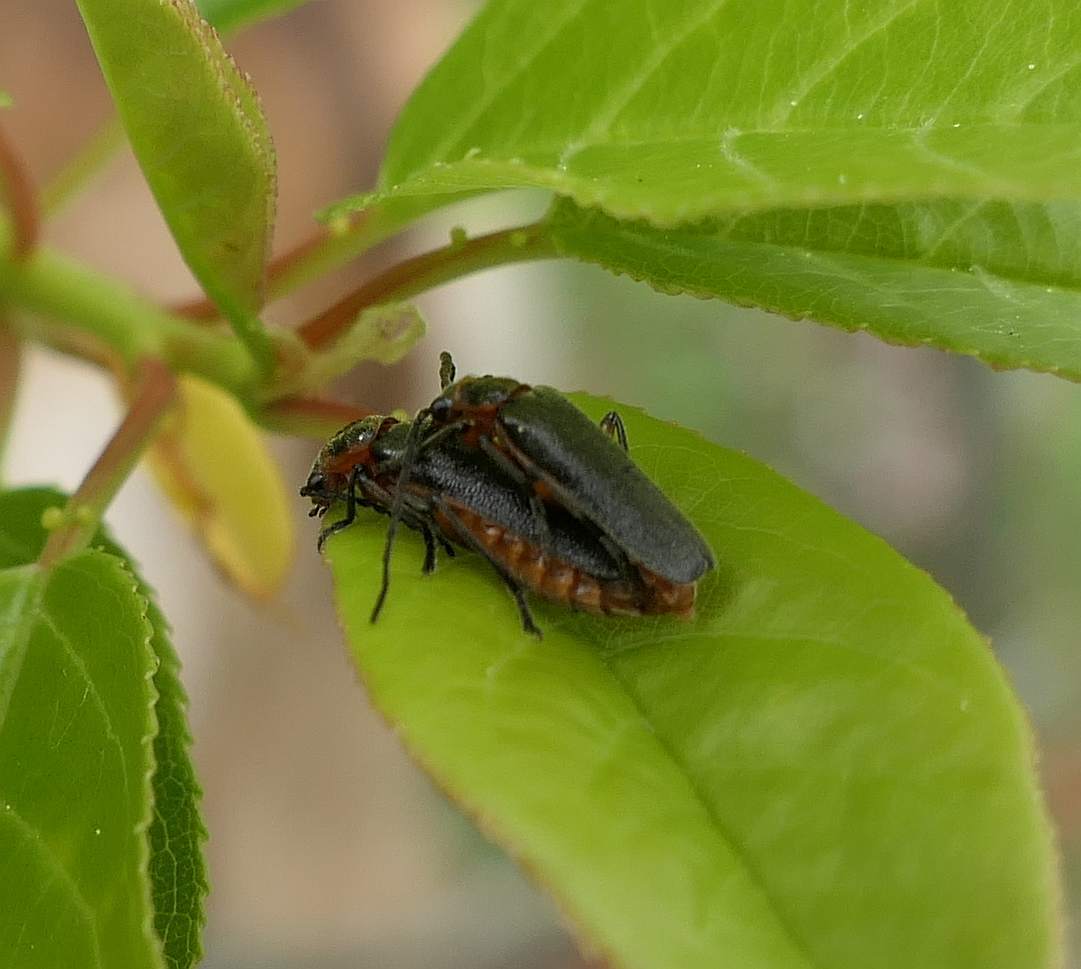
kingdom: Animalia
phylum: Arthropoda
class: Insecta
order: Coleoptera
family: Cantharidae
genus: Atalantycha
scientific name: Atalantycha bilineata
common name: Two-lined leatherwing
